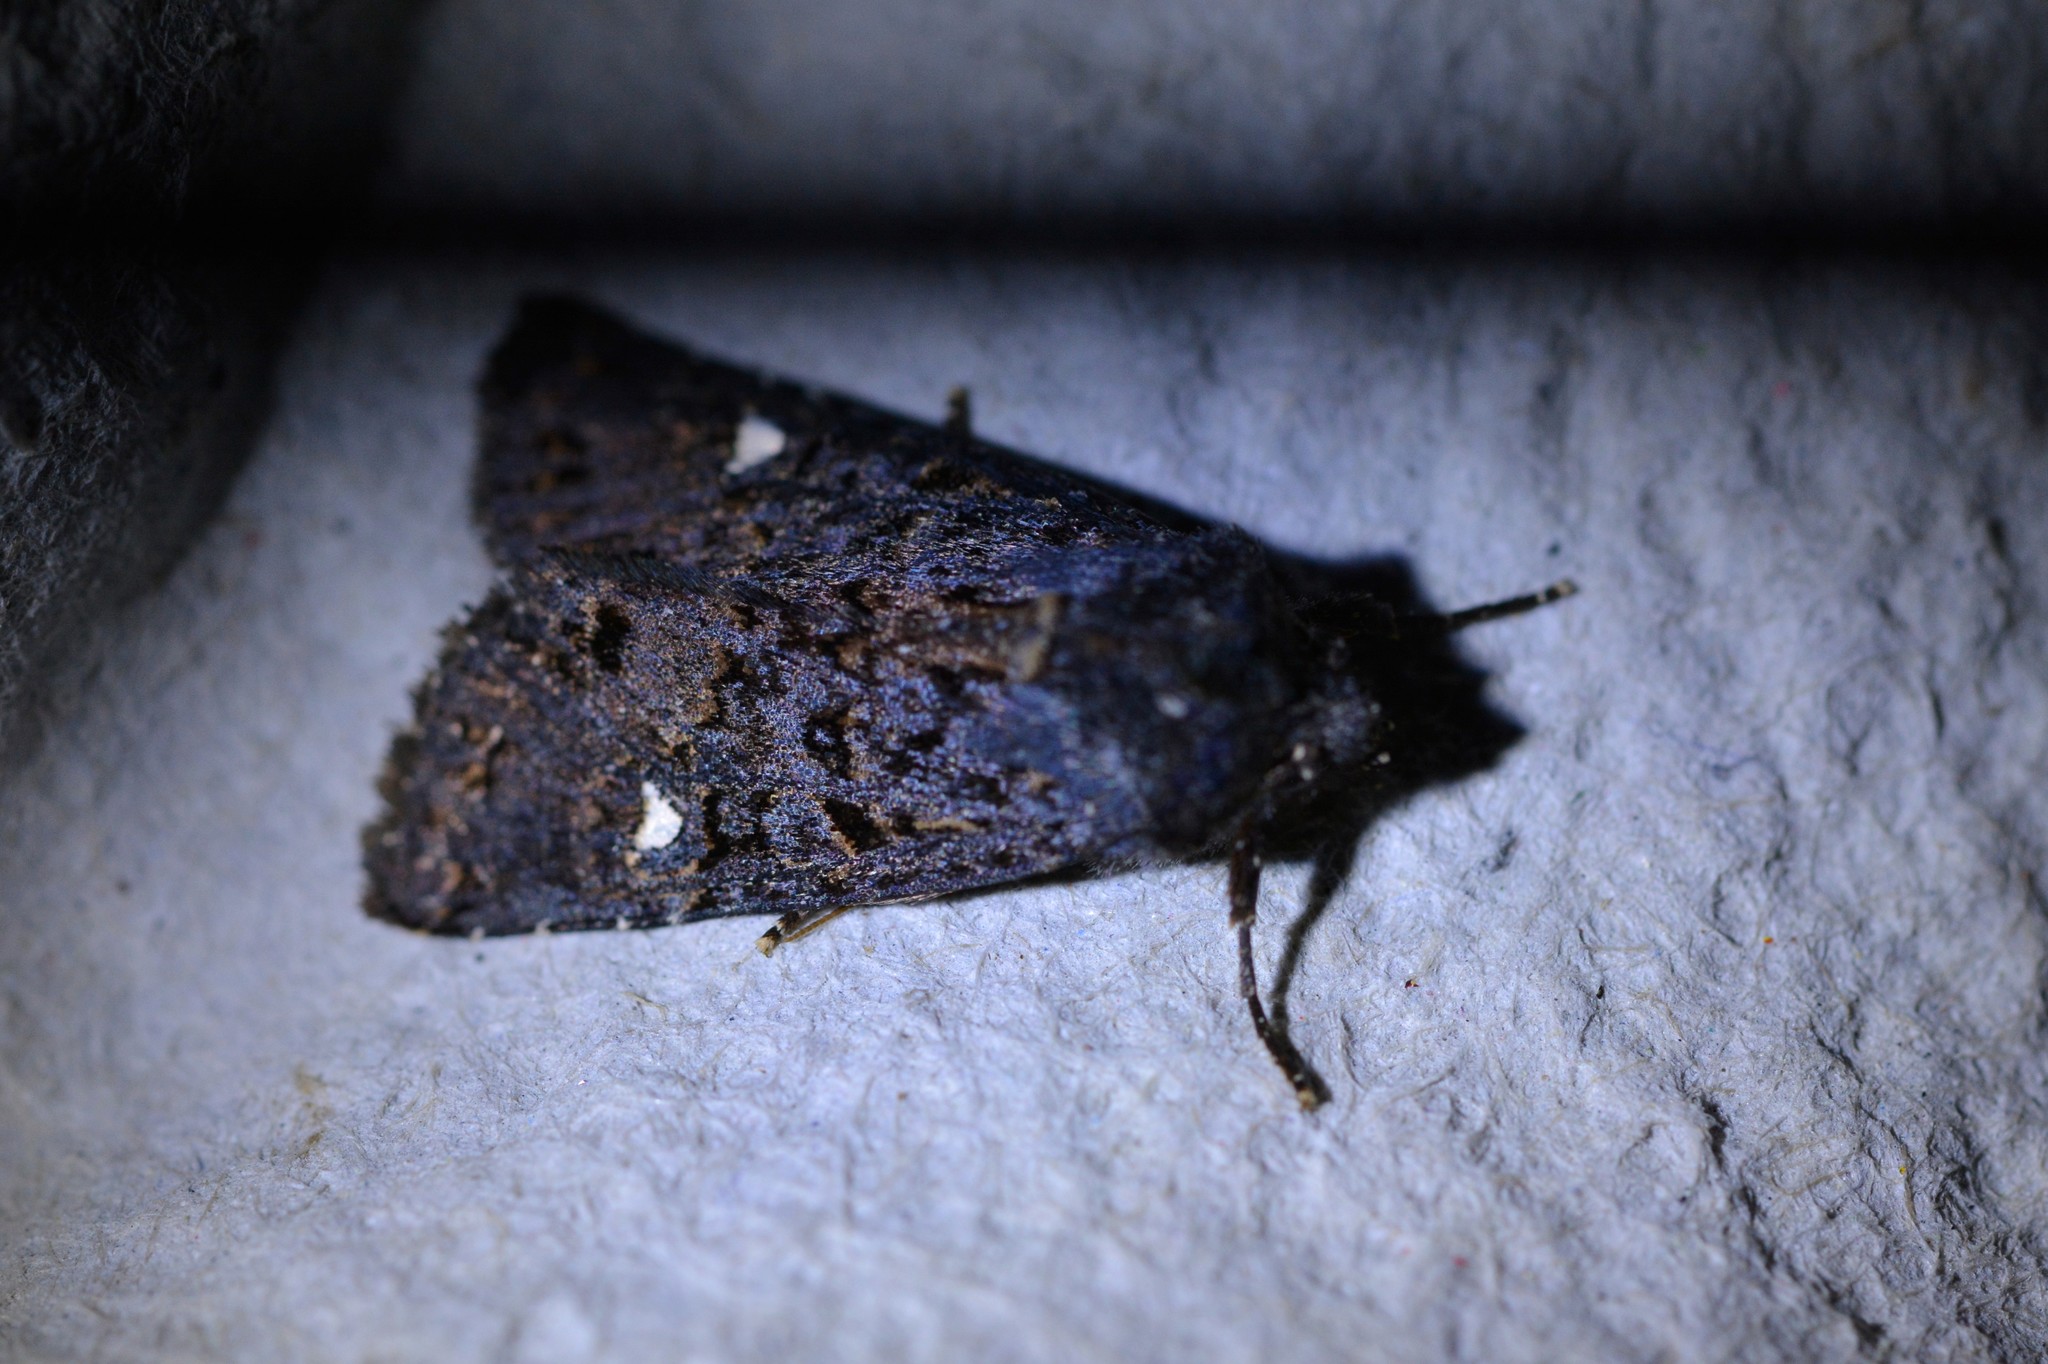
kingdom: Animalia
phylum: Arthropoda
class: Insecta
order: Lepidoptera
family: Noctuidae
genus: Meterana
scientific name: Meterana vitiosa
